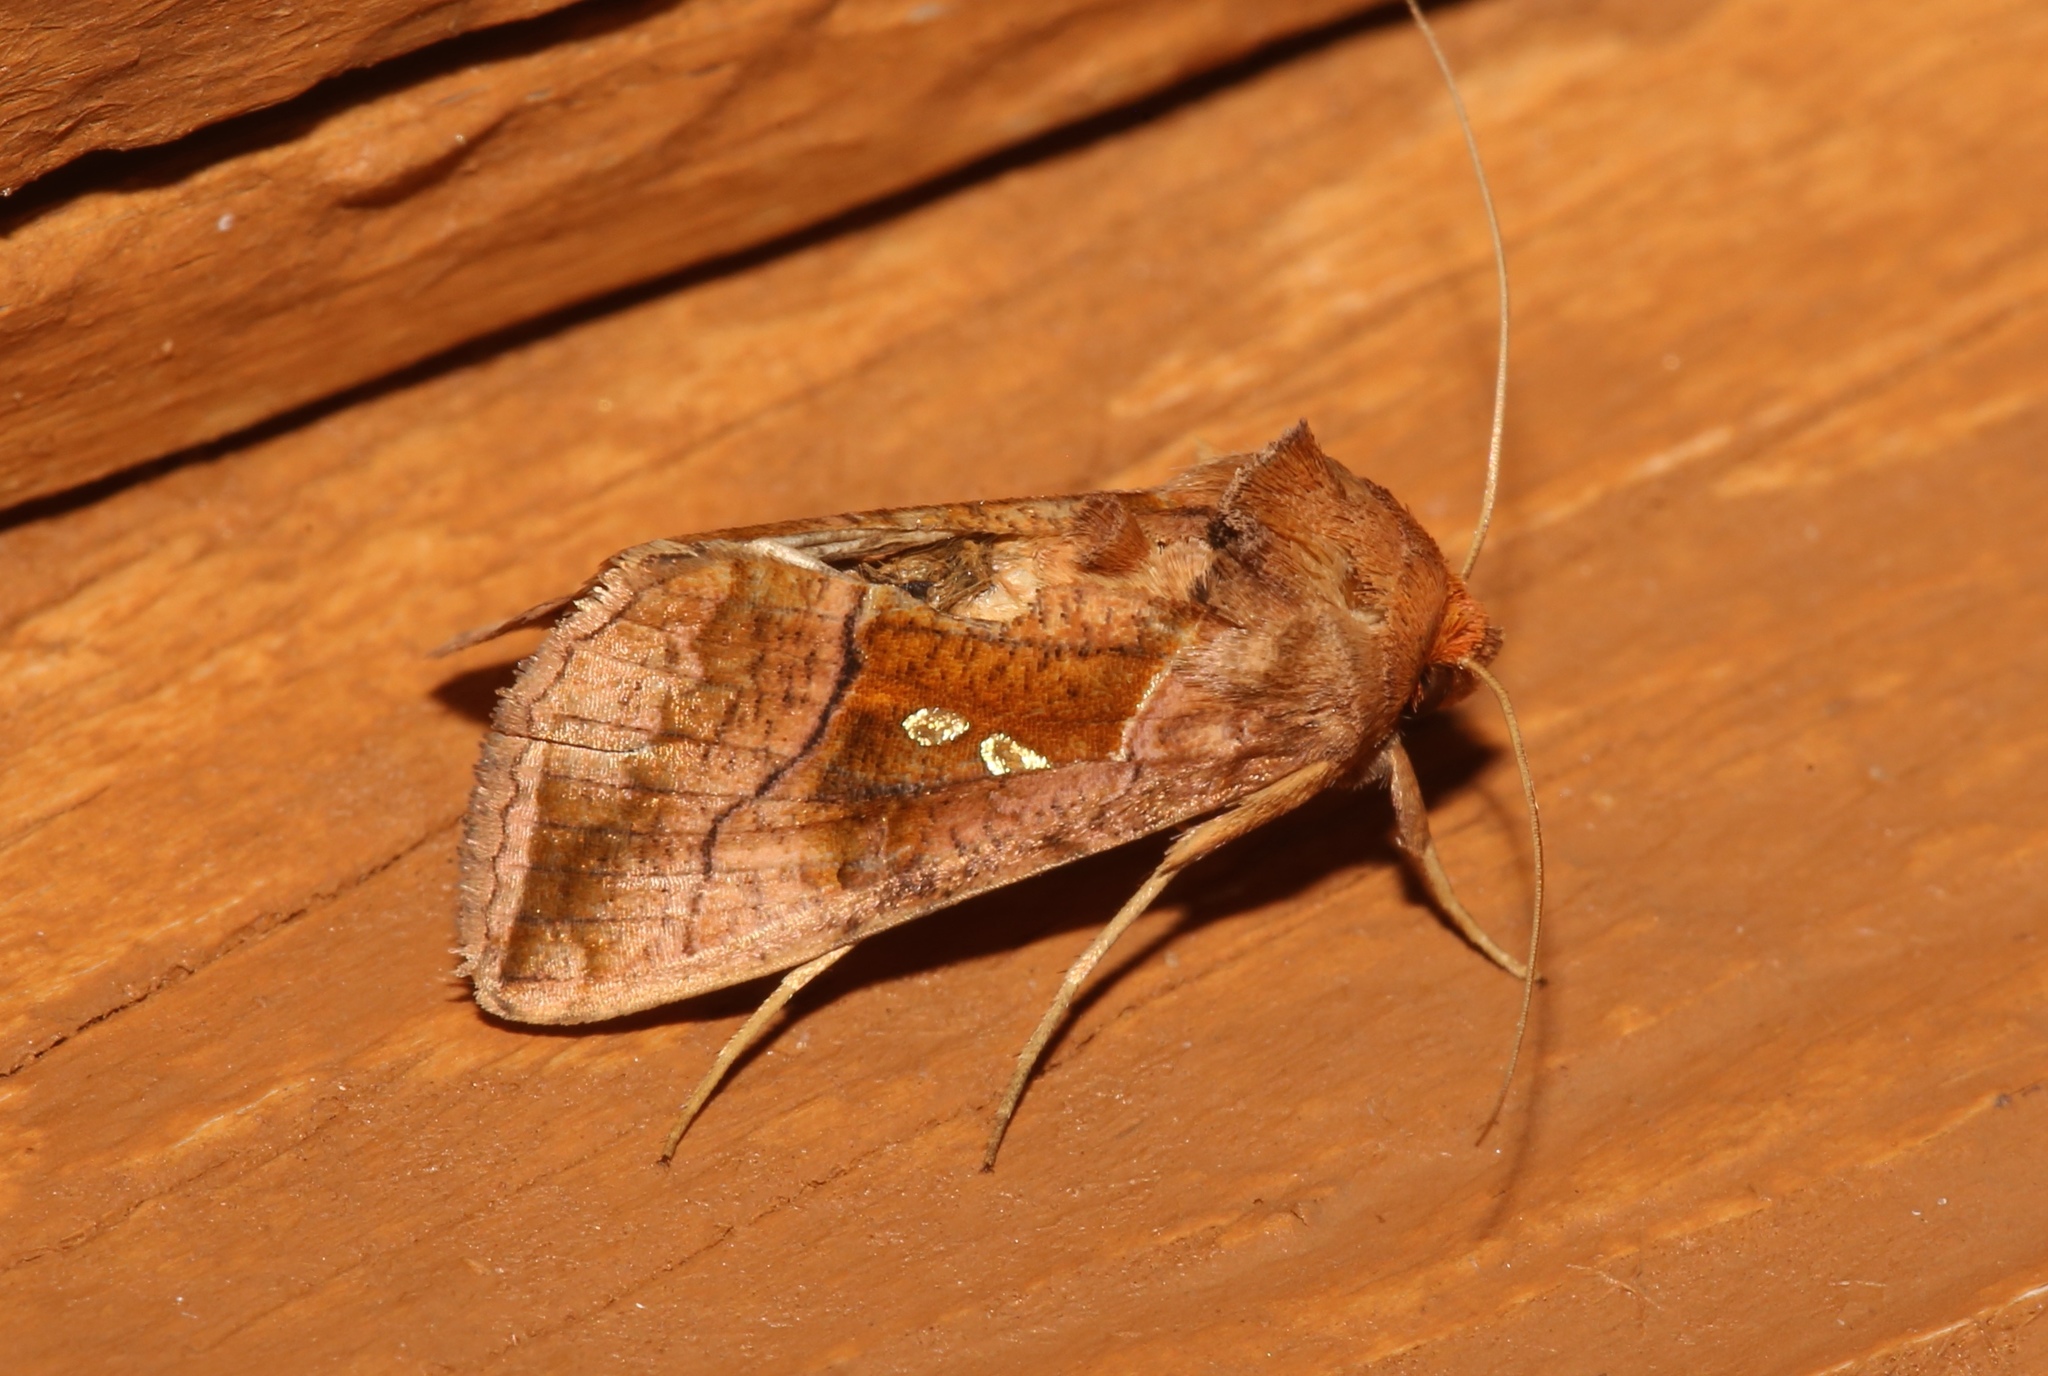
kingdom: Animalia
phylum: Arthropoda
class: Insecta
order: Lepidoptera
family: Noctuidae
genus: Enigmogramma
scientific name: Enigmogramma basigera
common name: Pink-washed looper moth
